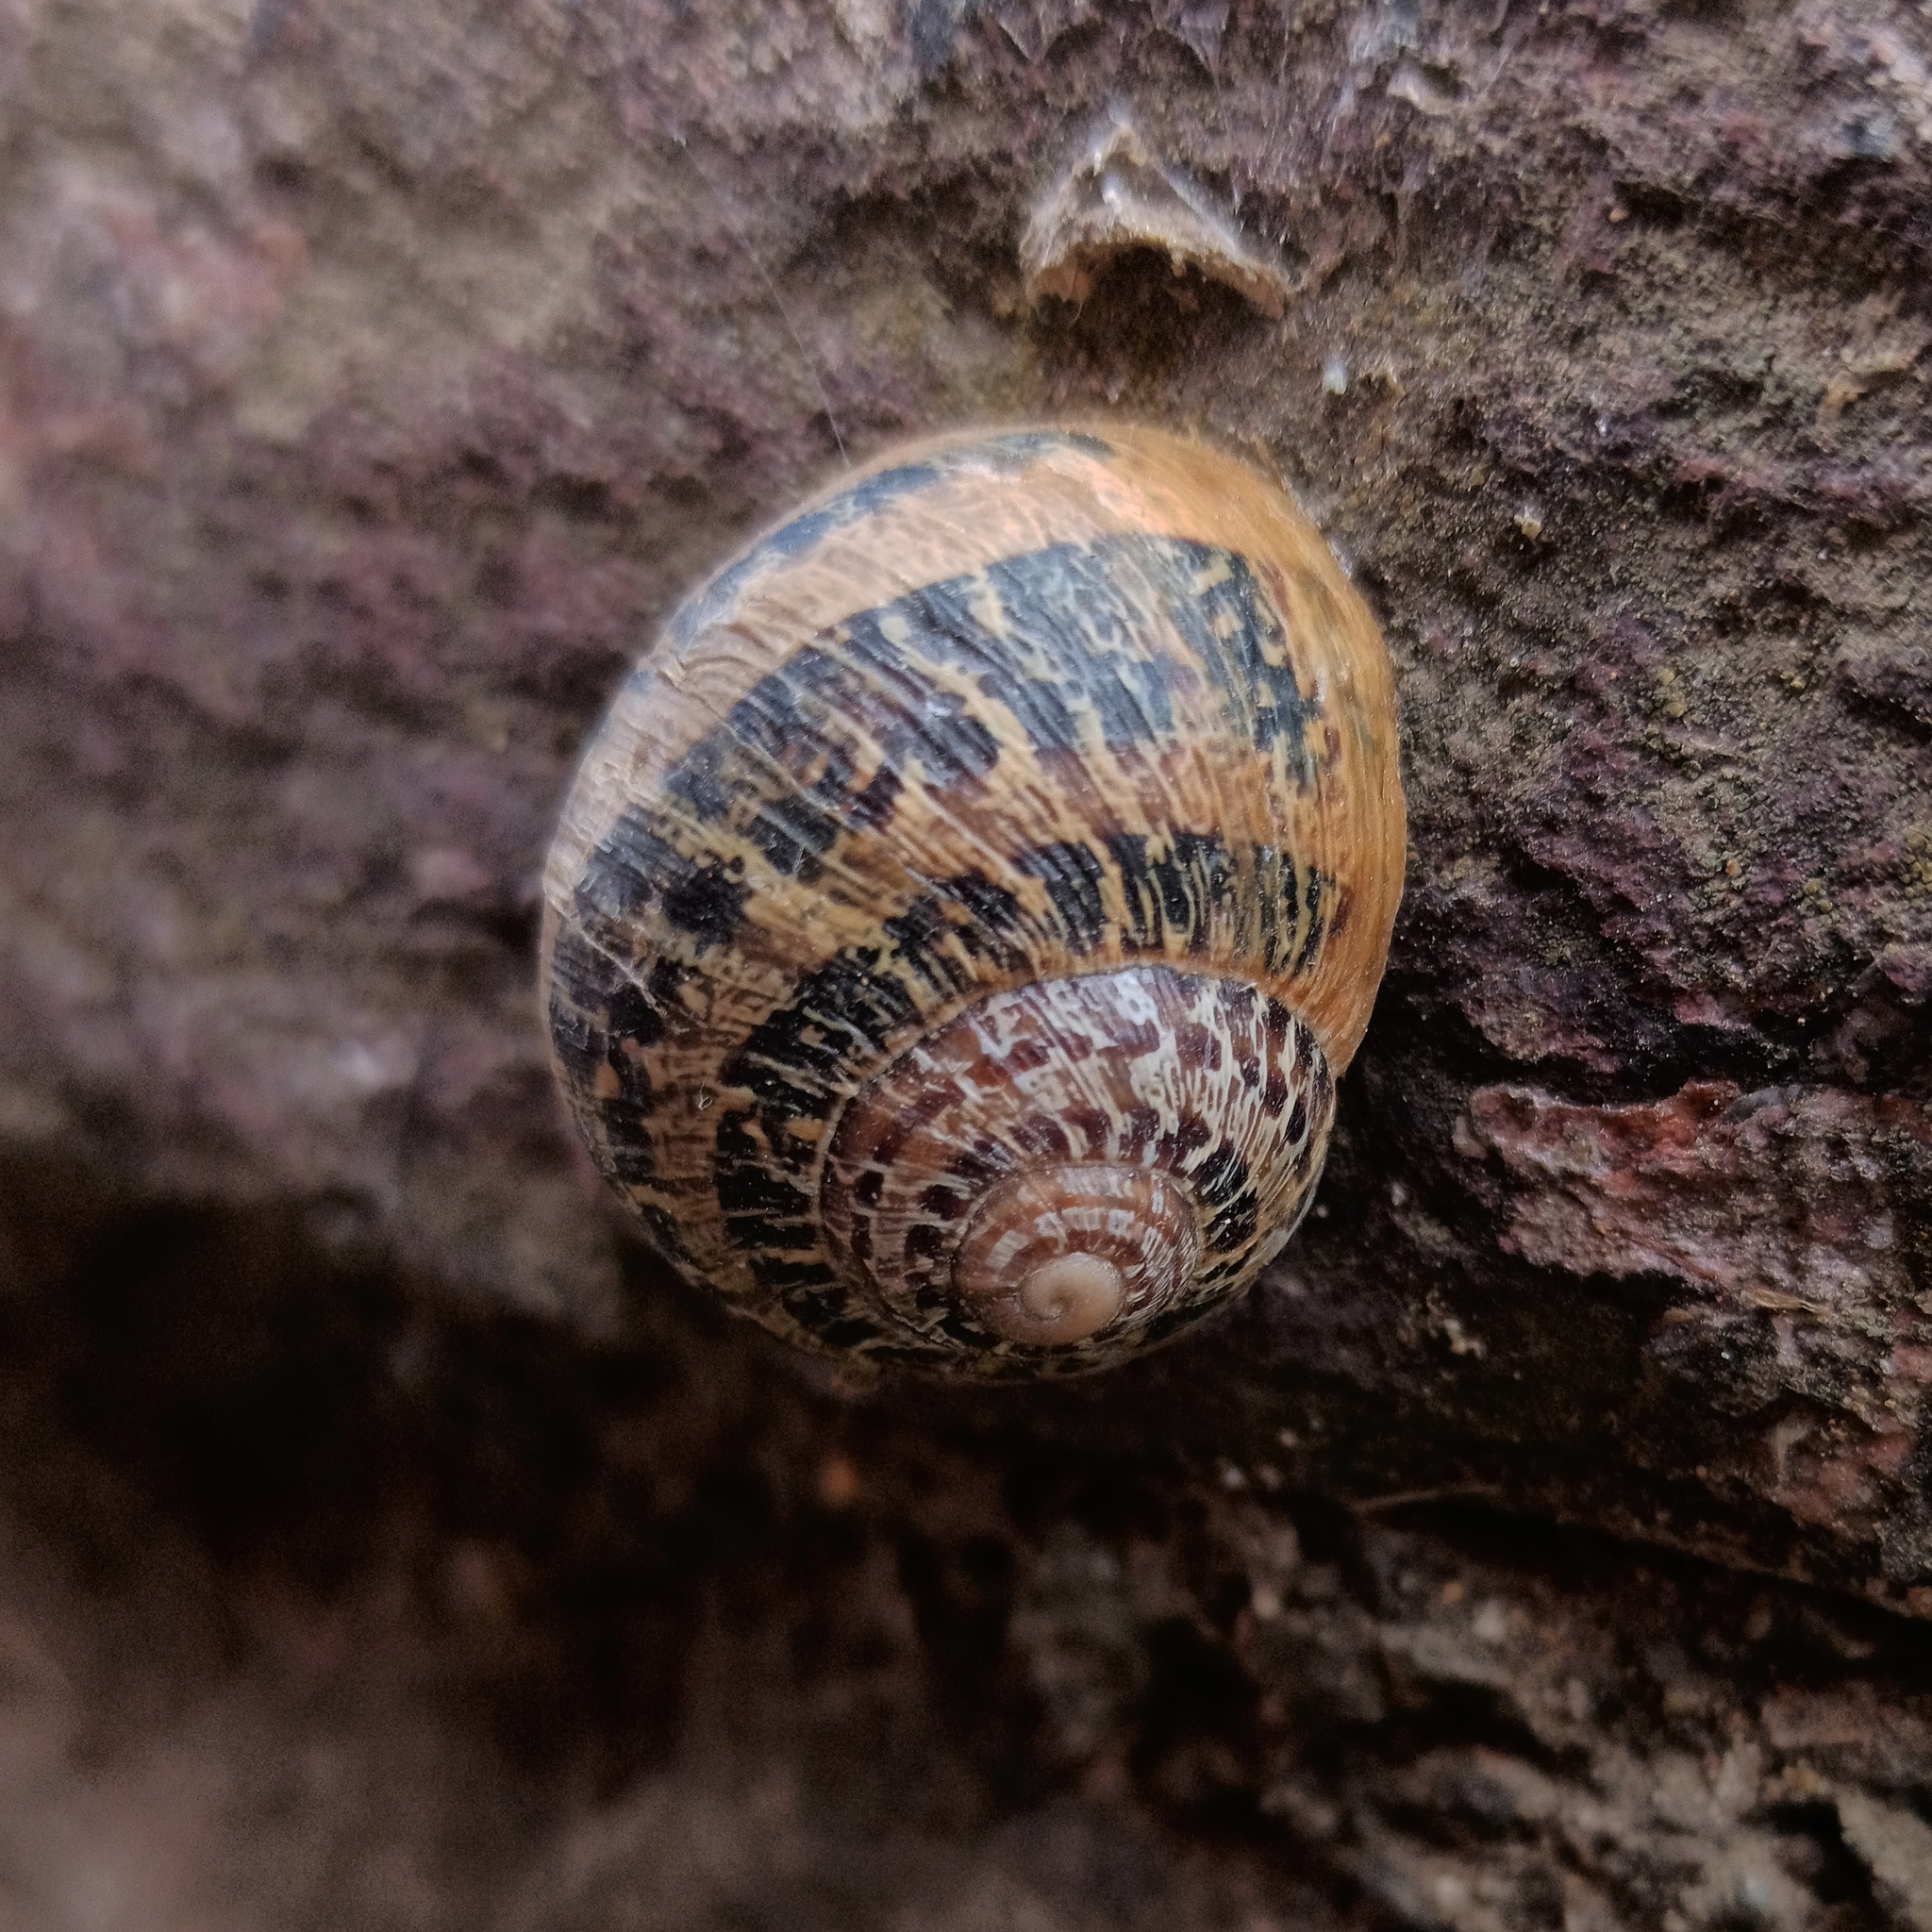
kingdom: Animalia
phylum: Mollusca
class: Gastropoda
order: Stylommatophora
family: Helicidae
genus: Cornu
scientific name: Cornu aspersum
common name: Brown garden snail
